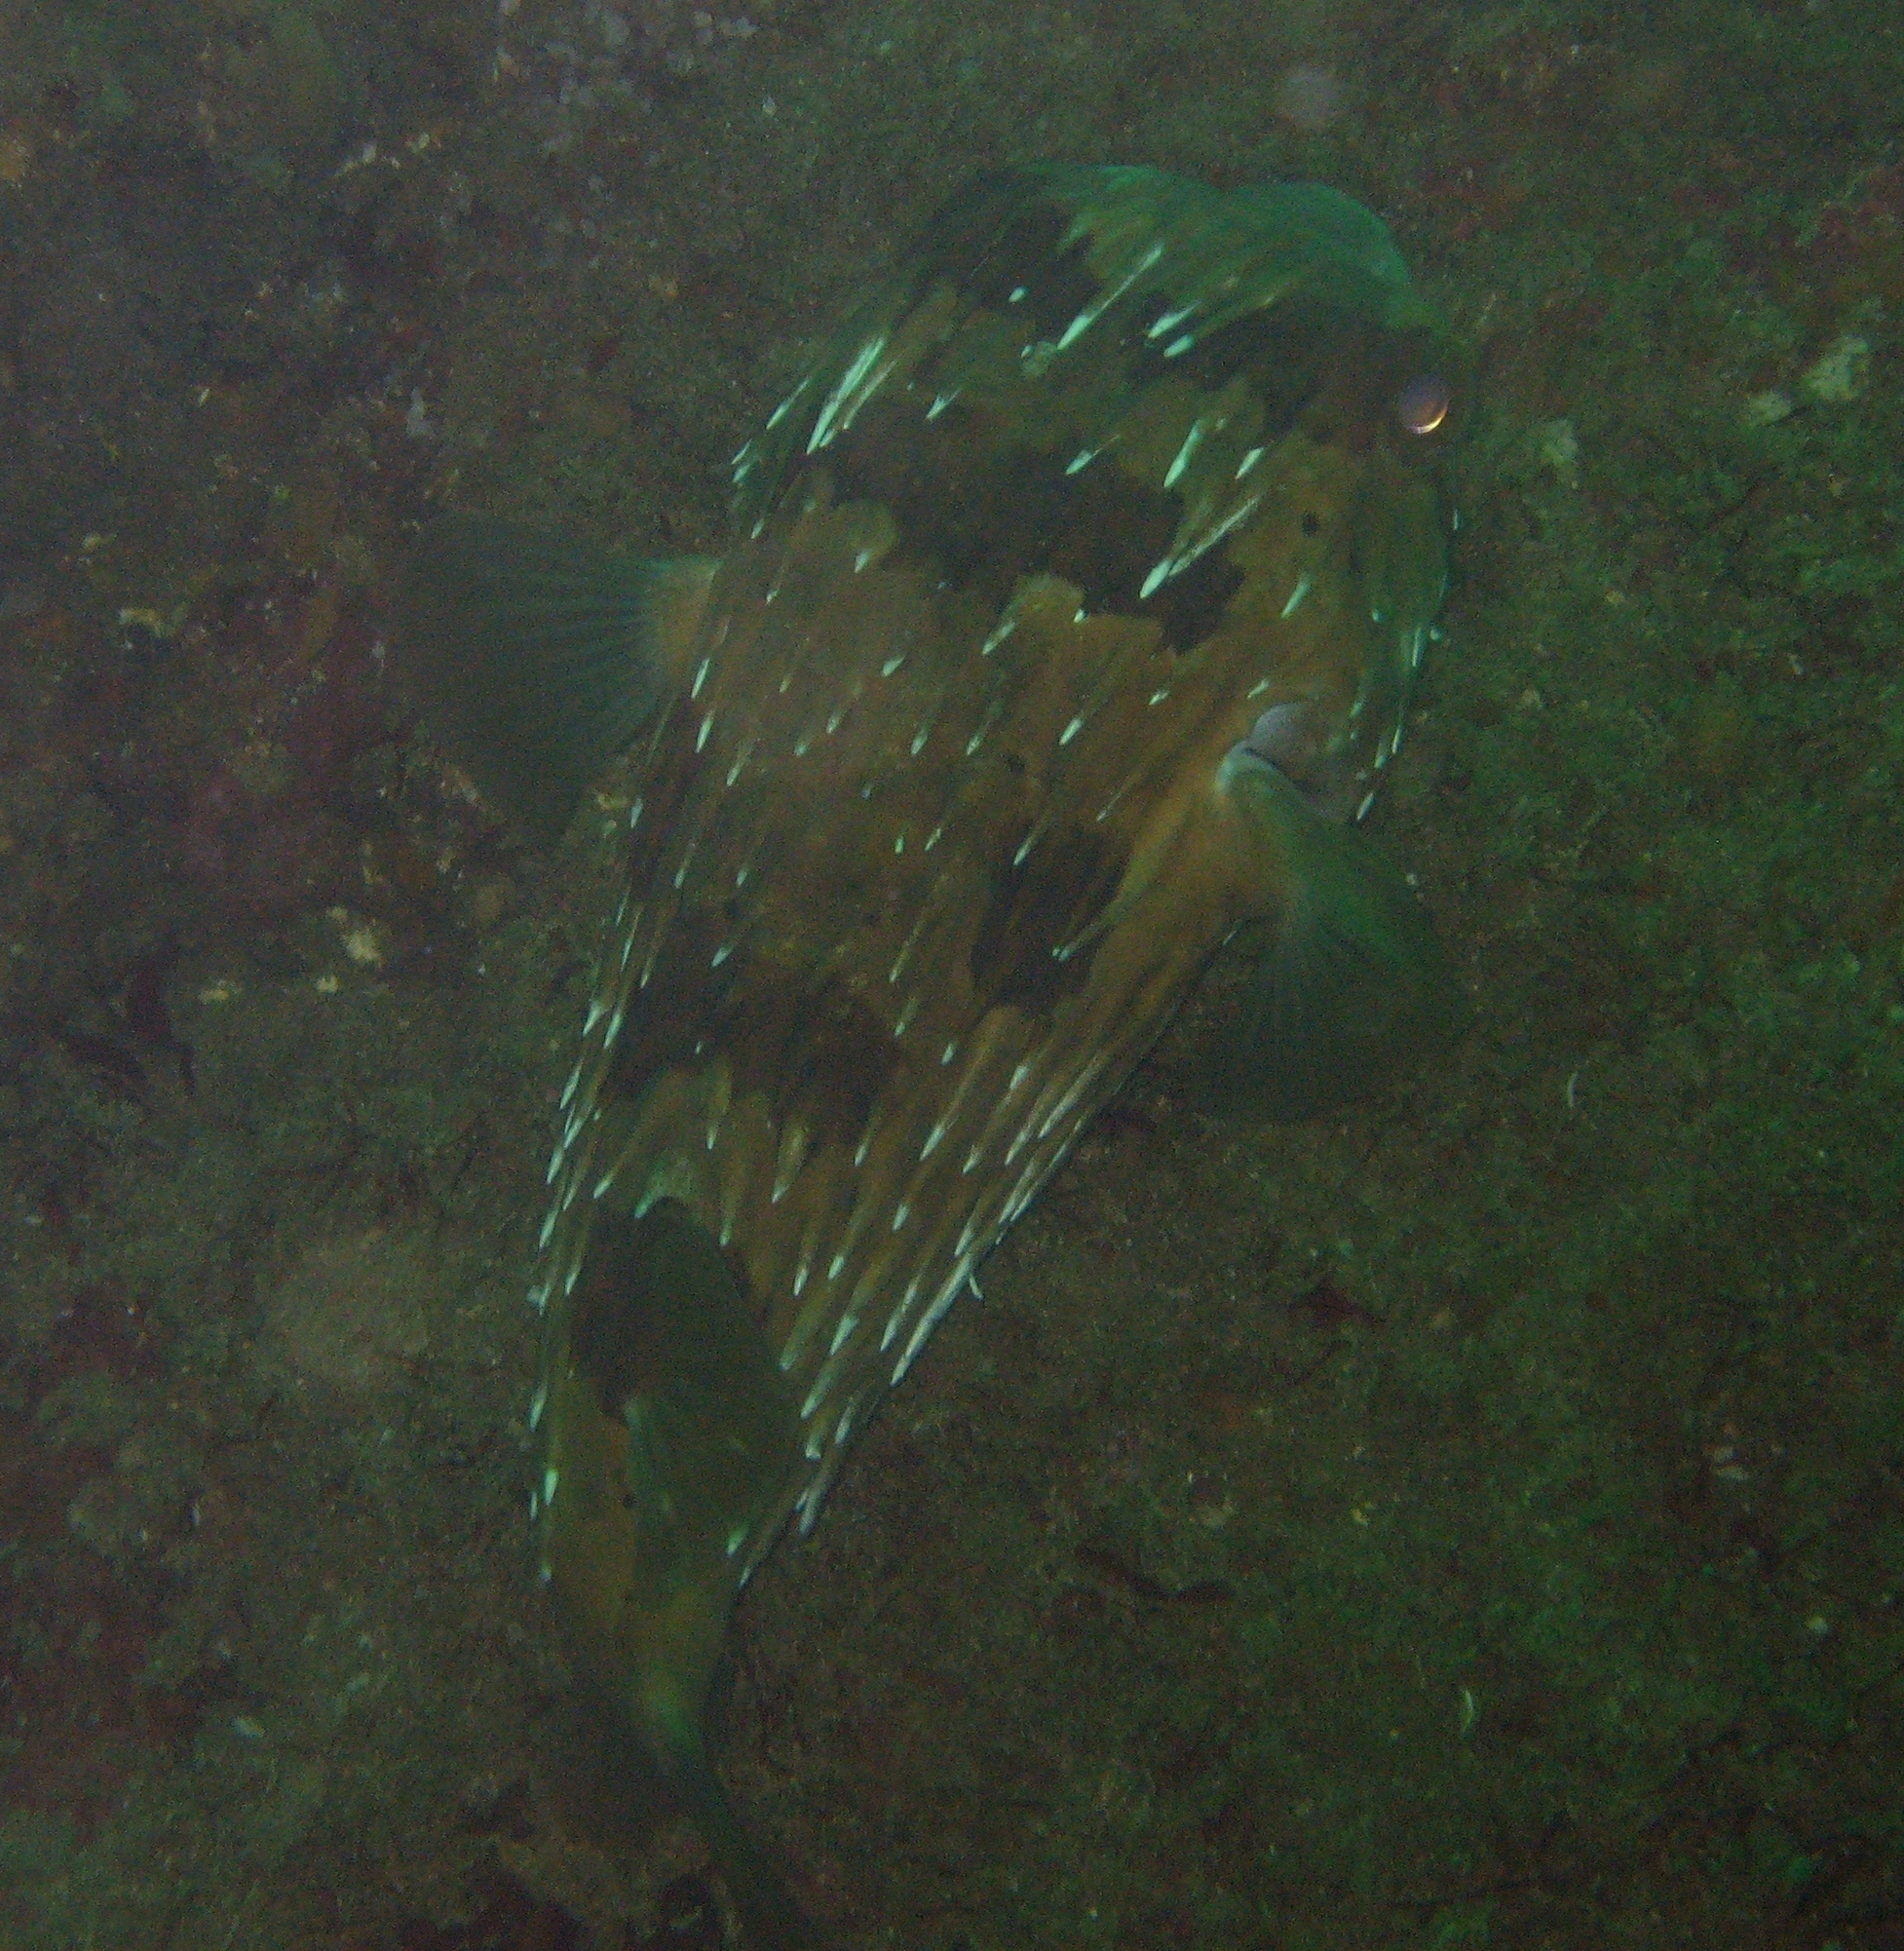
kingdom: Animalia
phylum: Chordata
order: Tetraodontiformes
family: Diodontidae
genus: Diodon
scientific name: Diodon holocanthus
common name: Balloonfish
